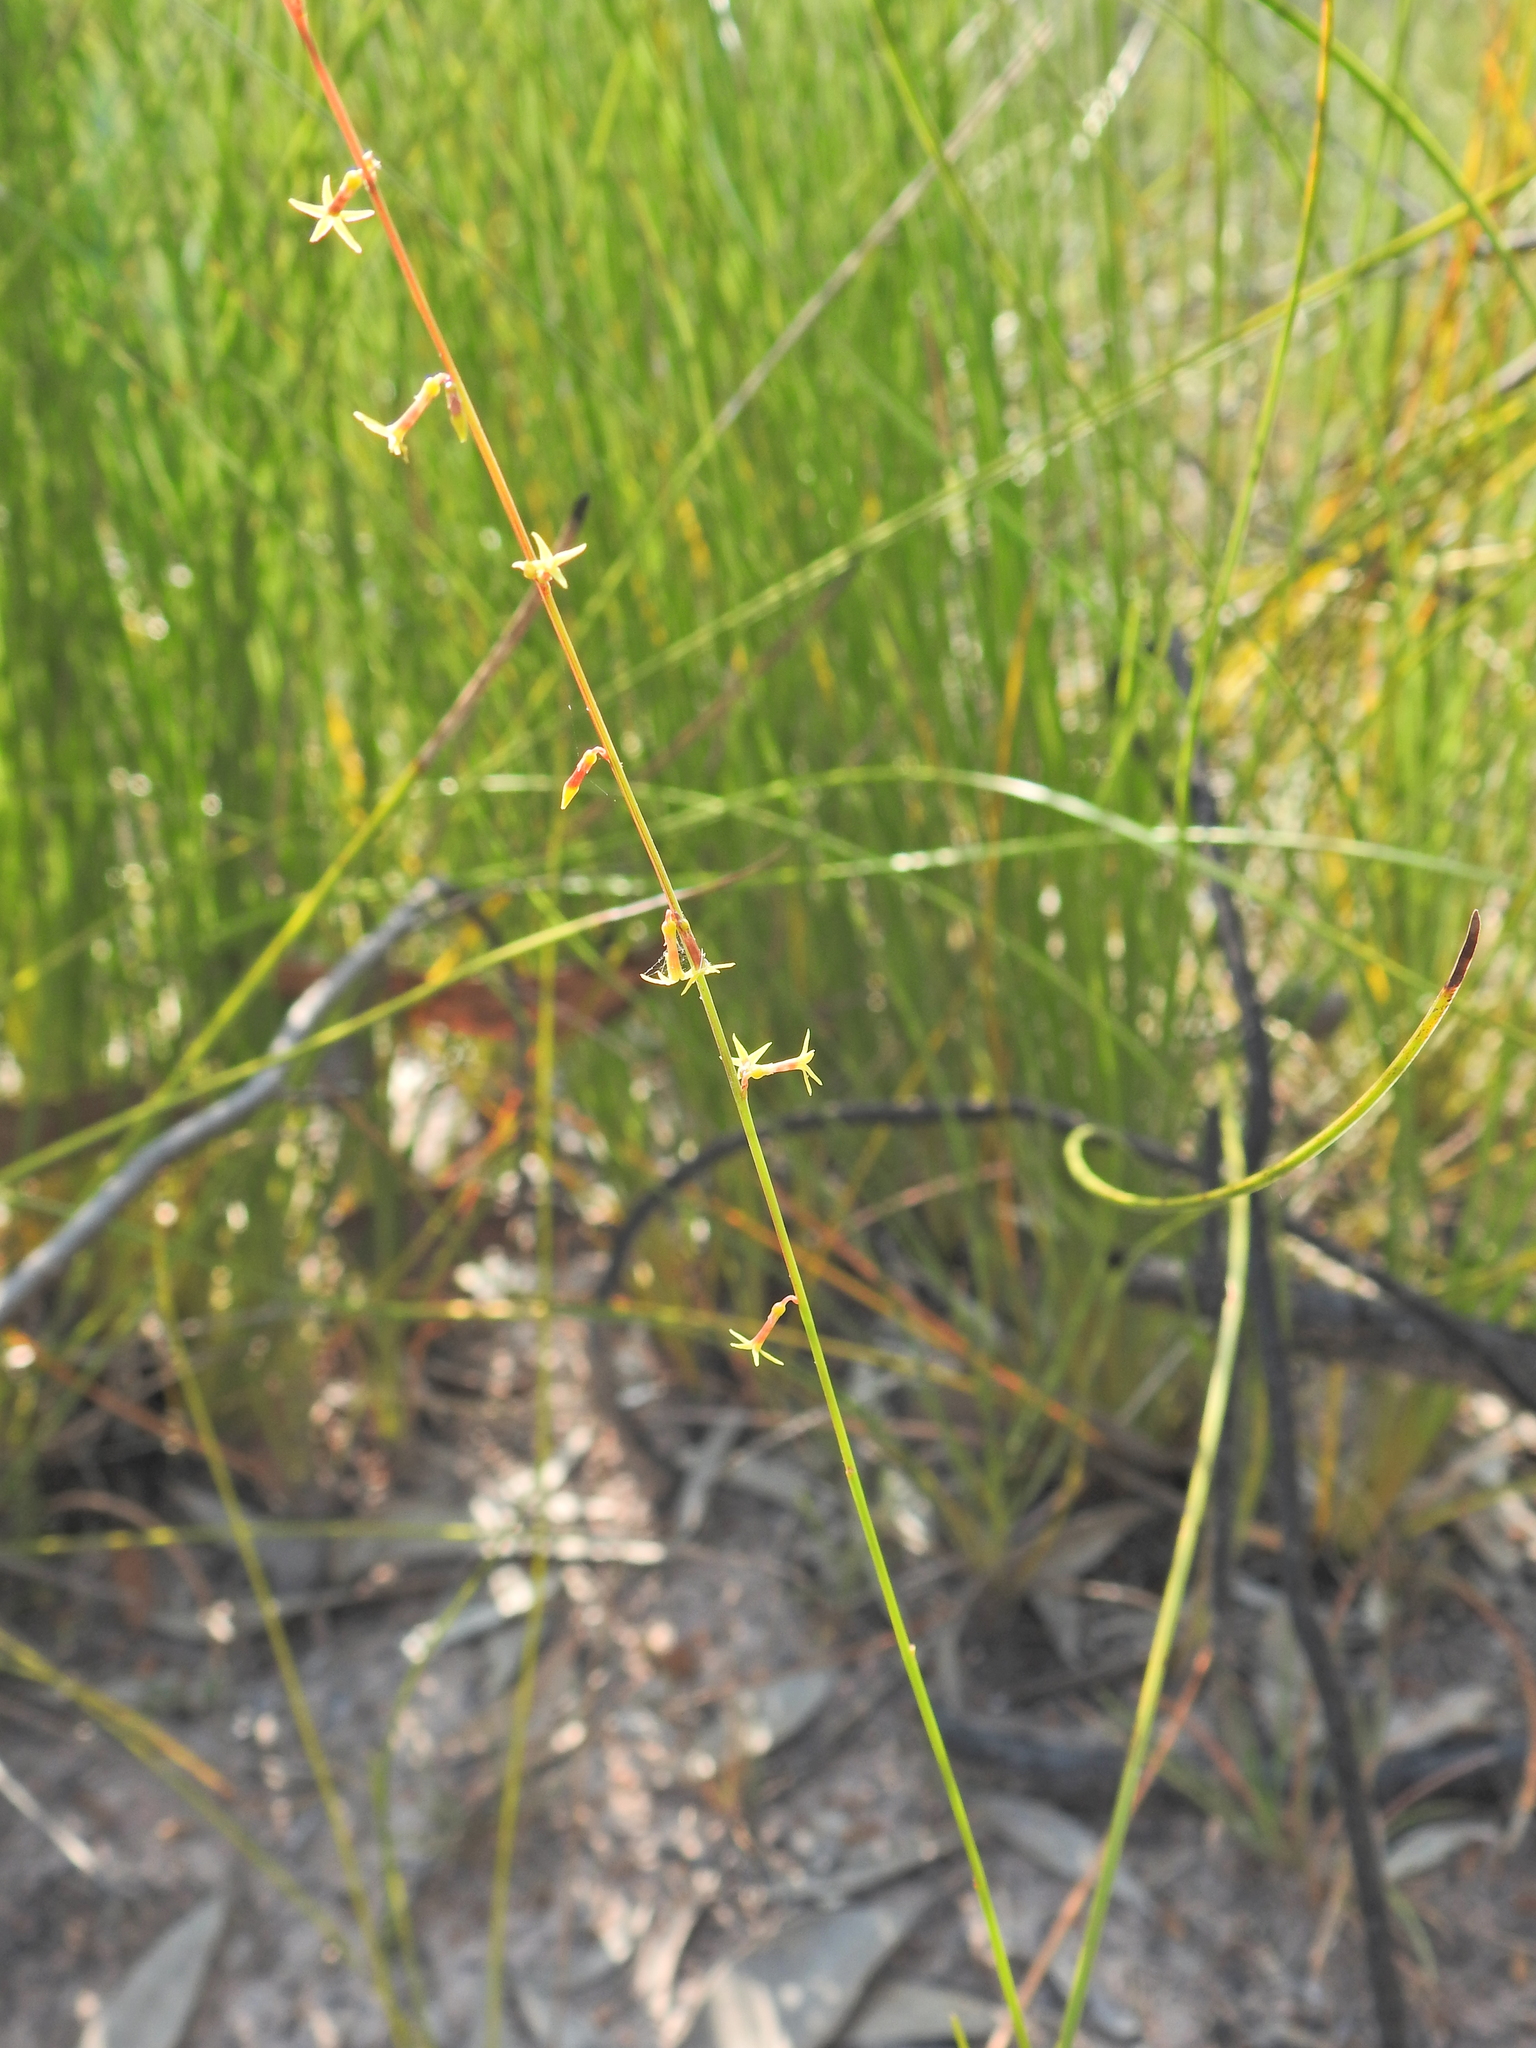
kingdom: Plantae
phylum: Tracheophyta
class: Magnoliopsida
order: Celastrales
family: Celastraceae
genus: Stackhousia
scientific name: Stackhousia nuda
